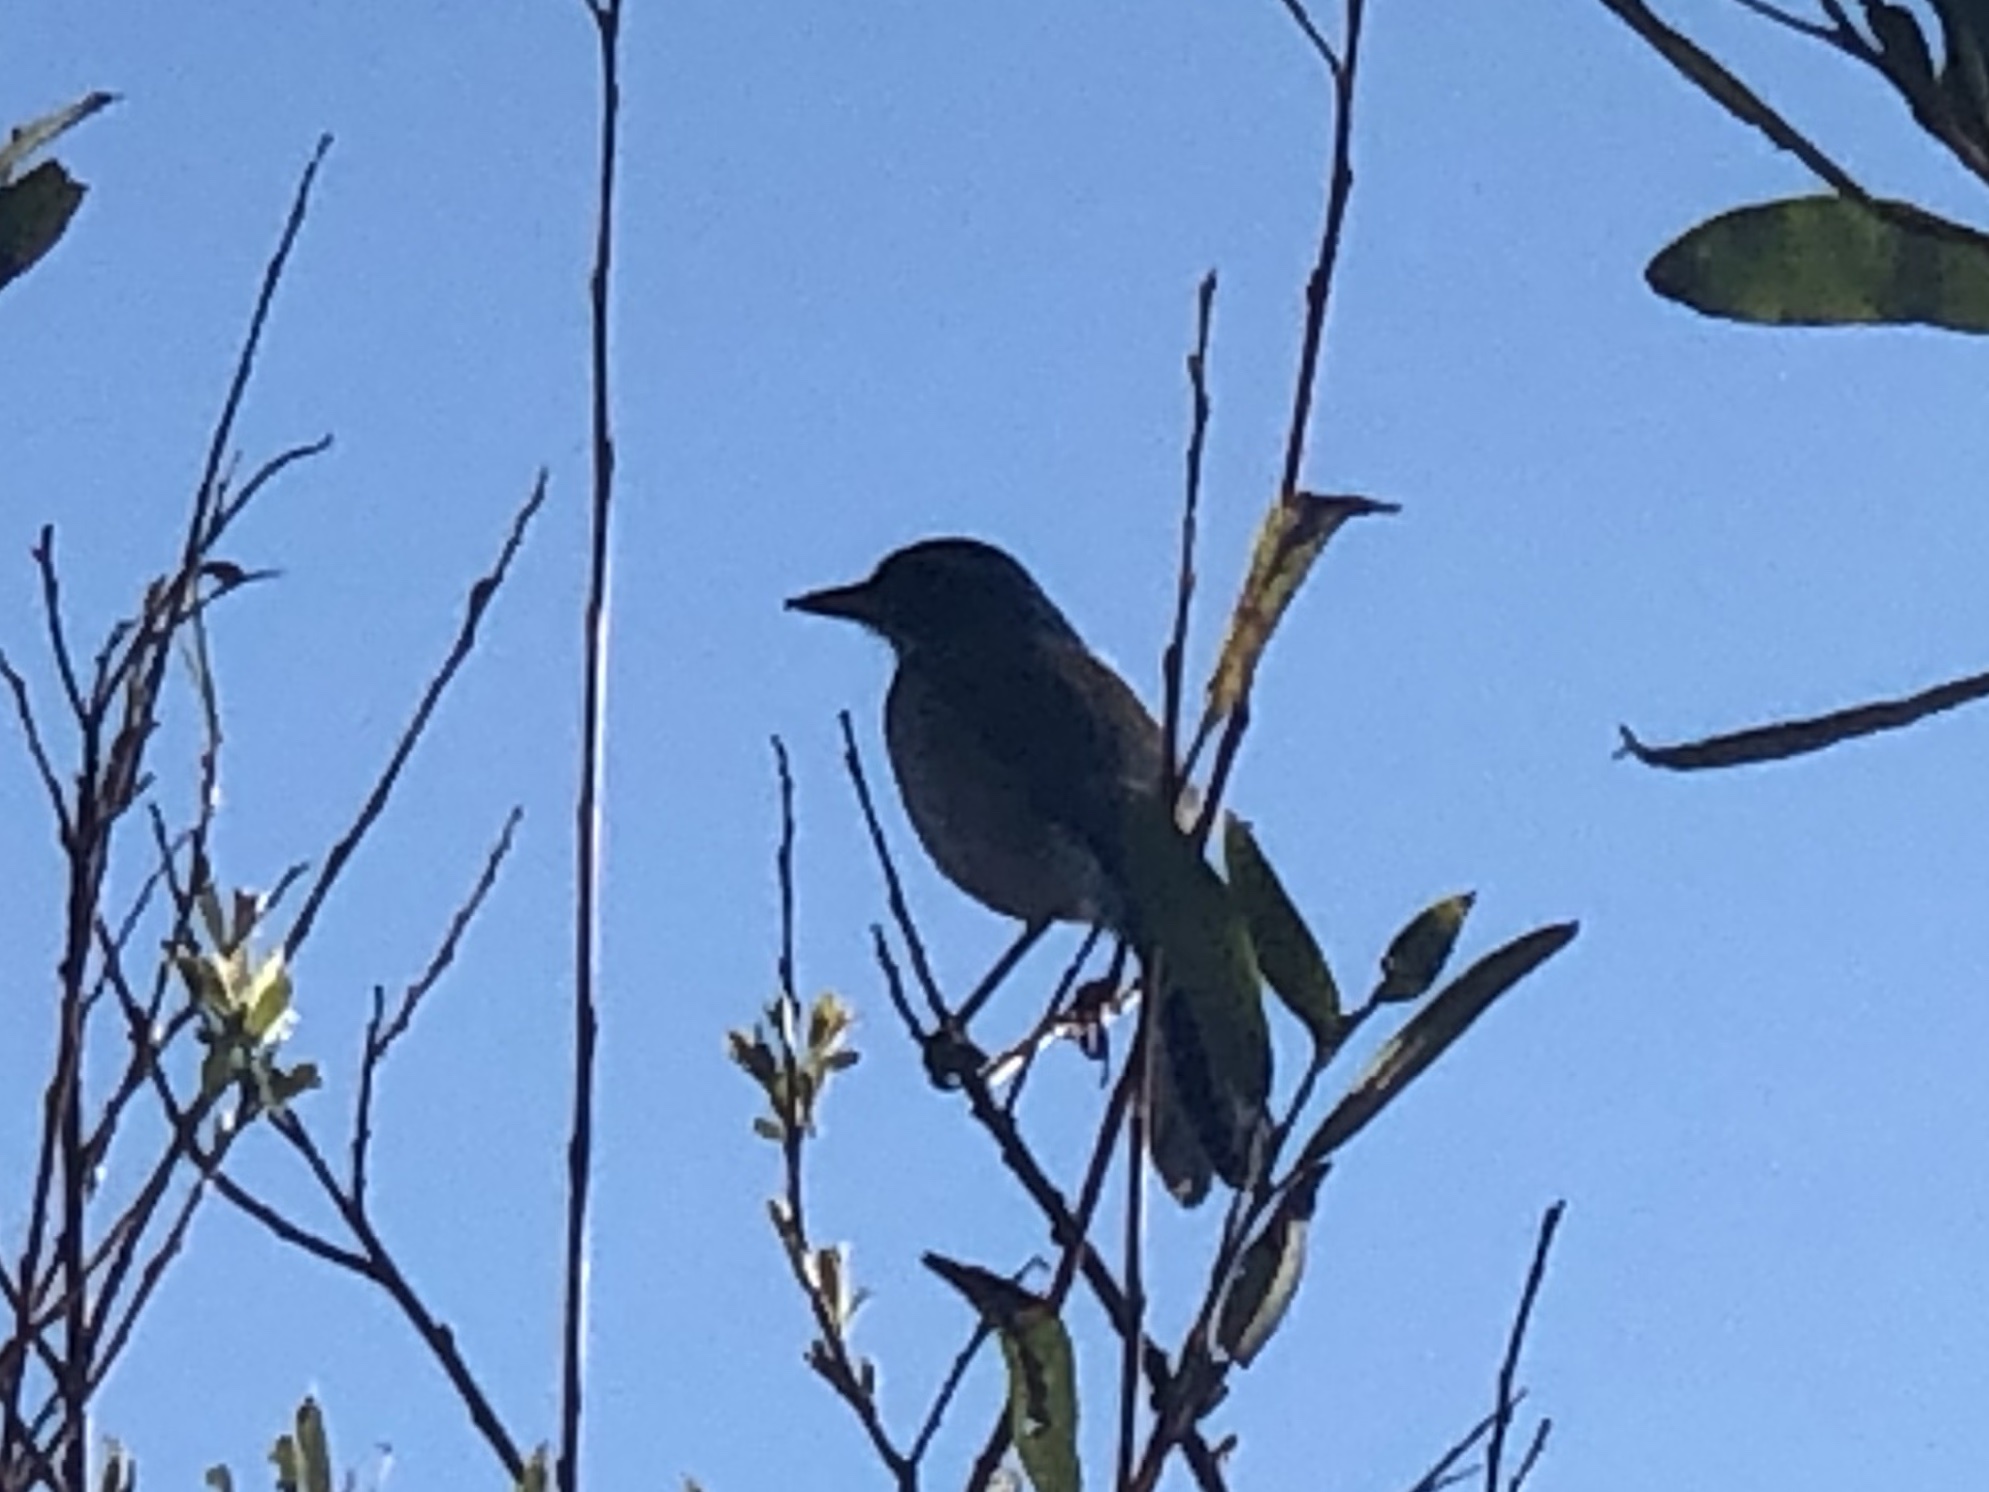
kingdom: Animalia
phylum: Chordata
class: Aves
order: Passeriformes
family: Corvidae
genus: Aphelocoma
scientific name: Aphelocoma californica
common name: California scrub-jay
